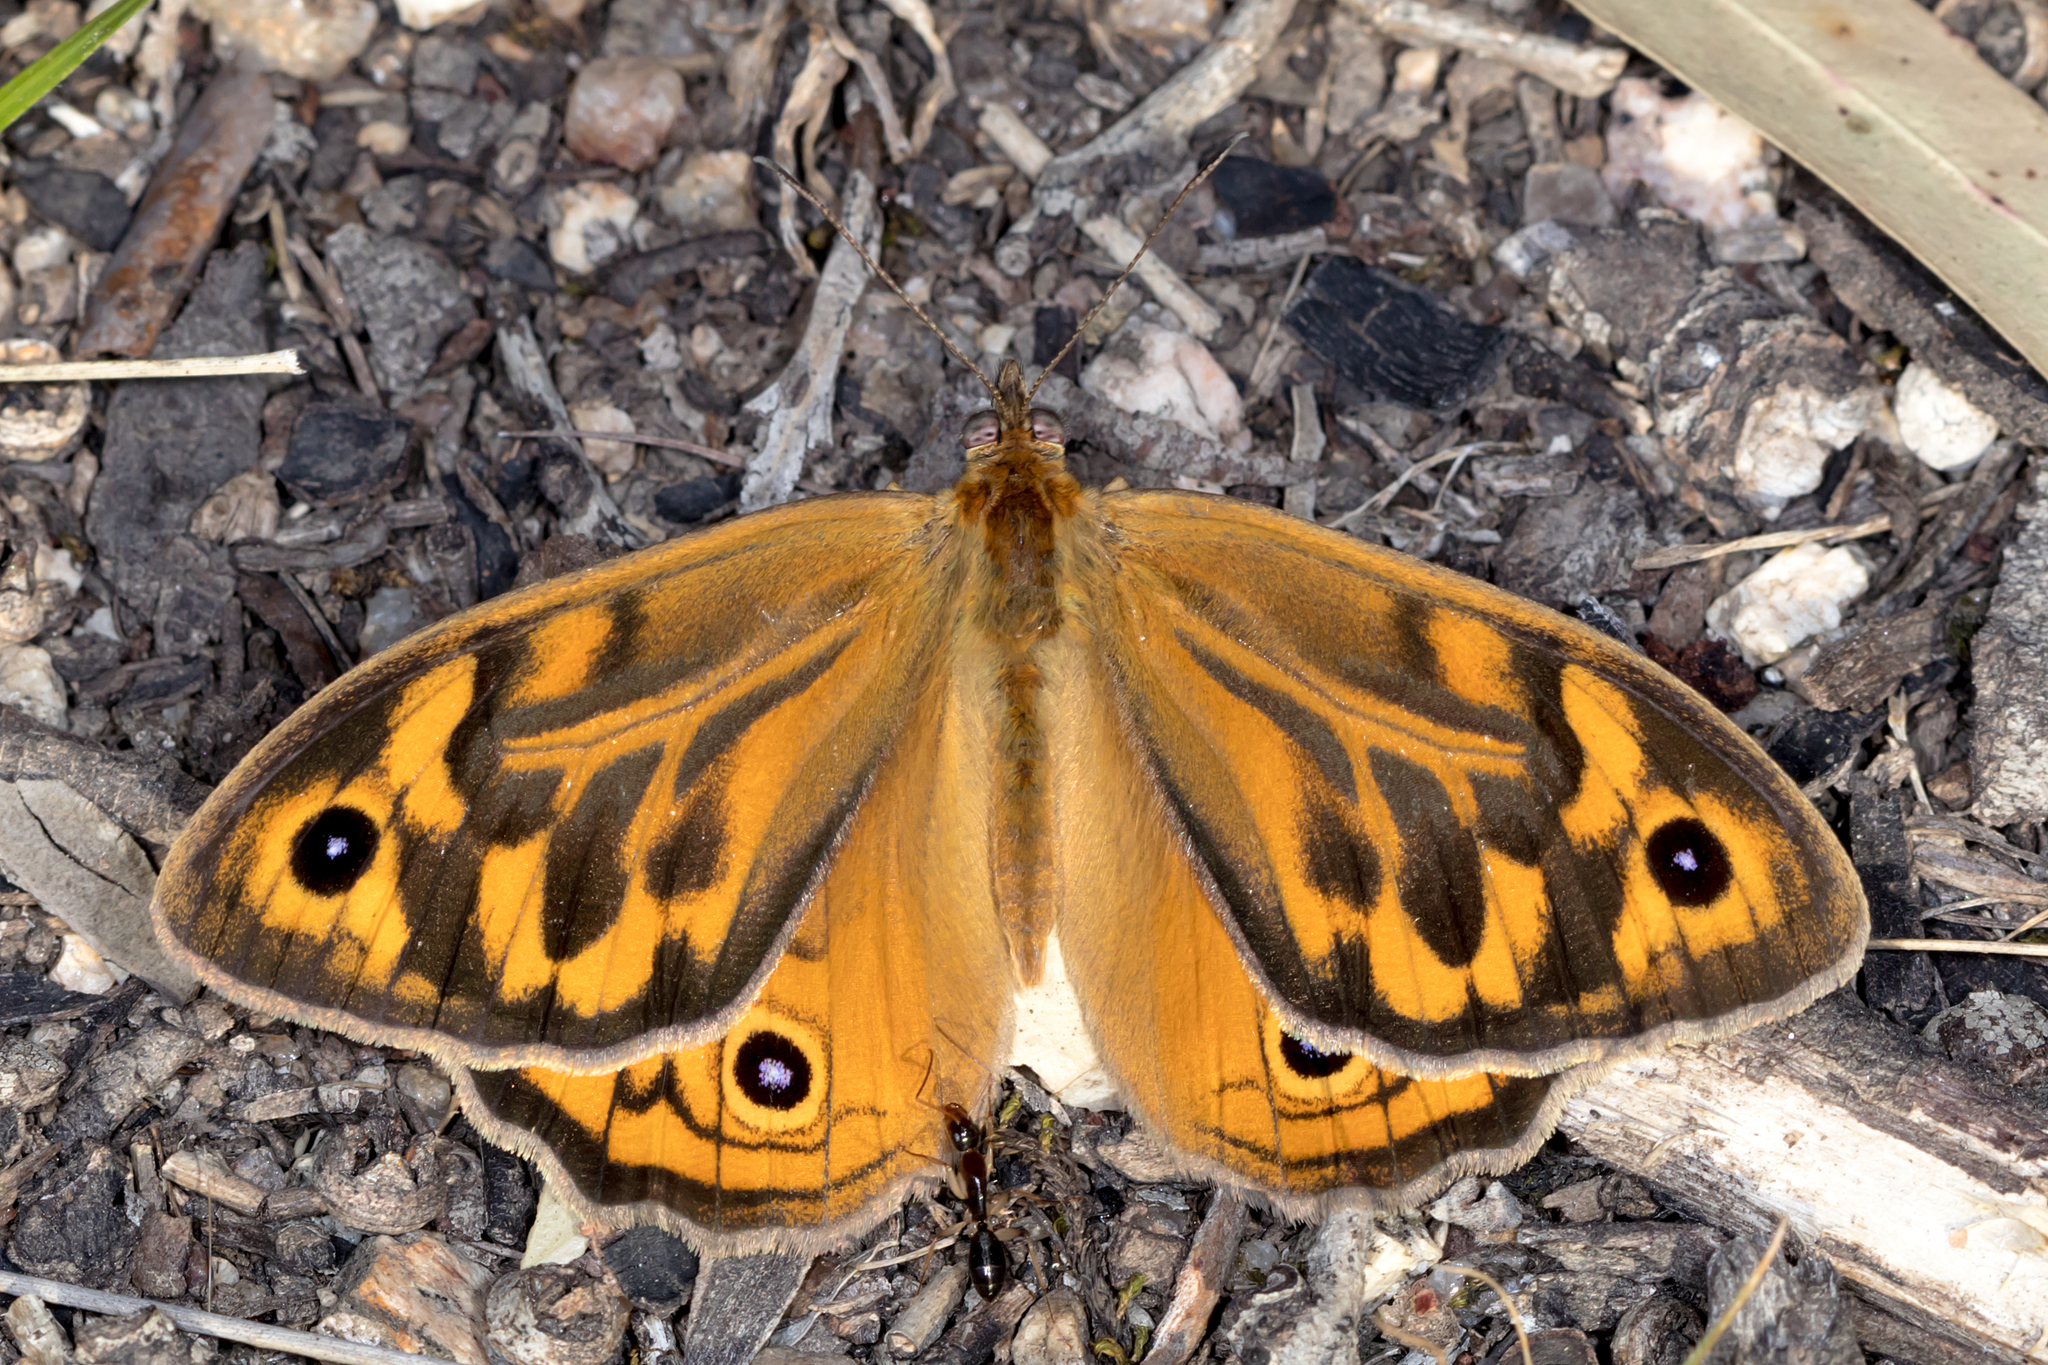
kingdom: Animalia
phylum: Arthropoda
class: Insecta
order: Lepidoptera
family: Nymphalidae
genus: Heteronympha
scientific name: Heteronympha merope
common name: Common brown
